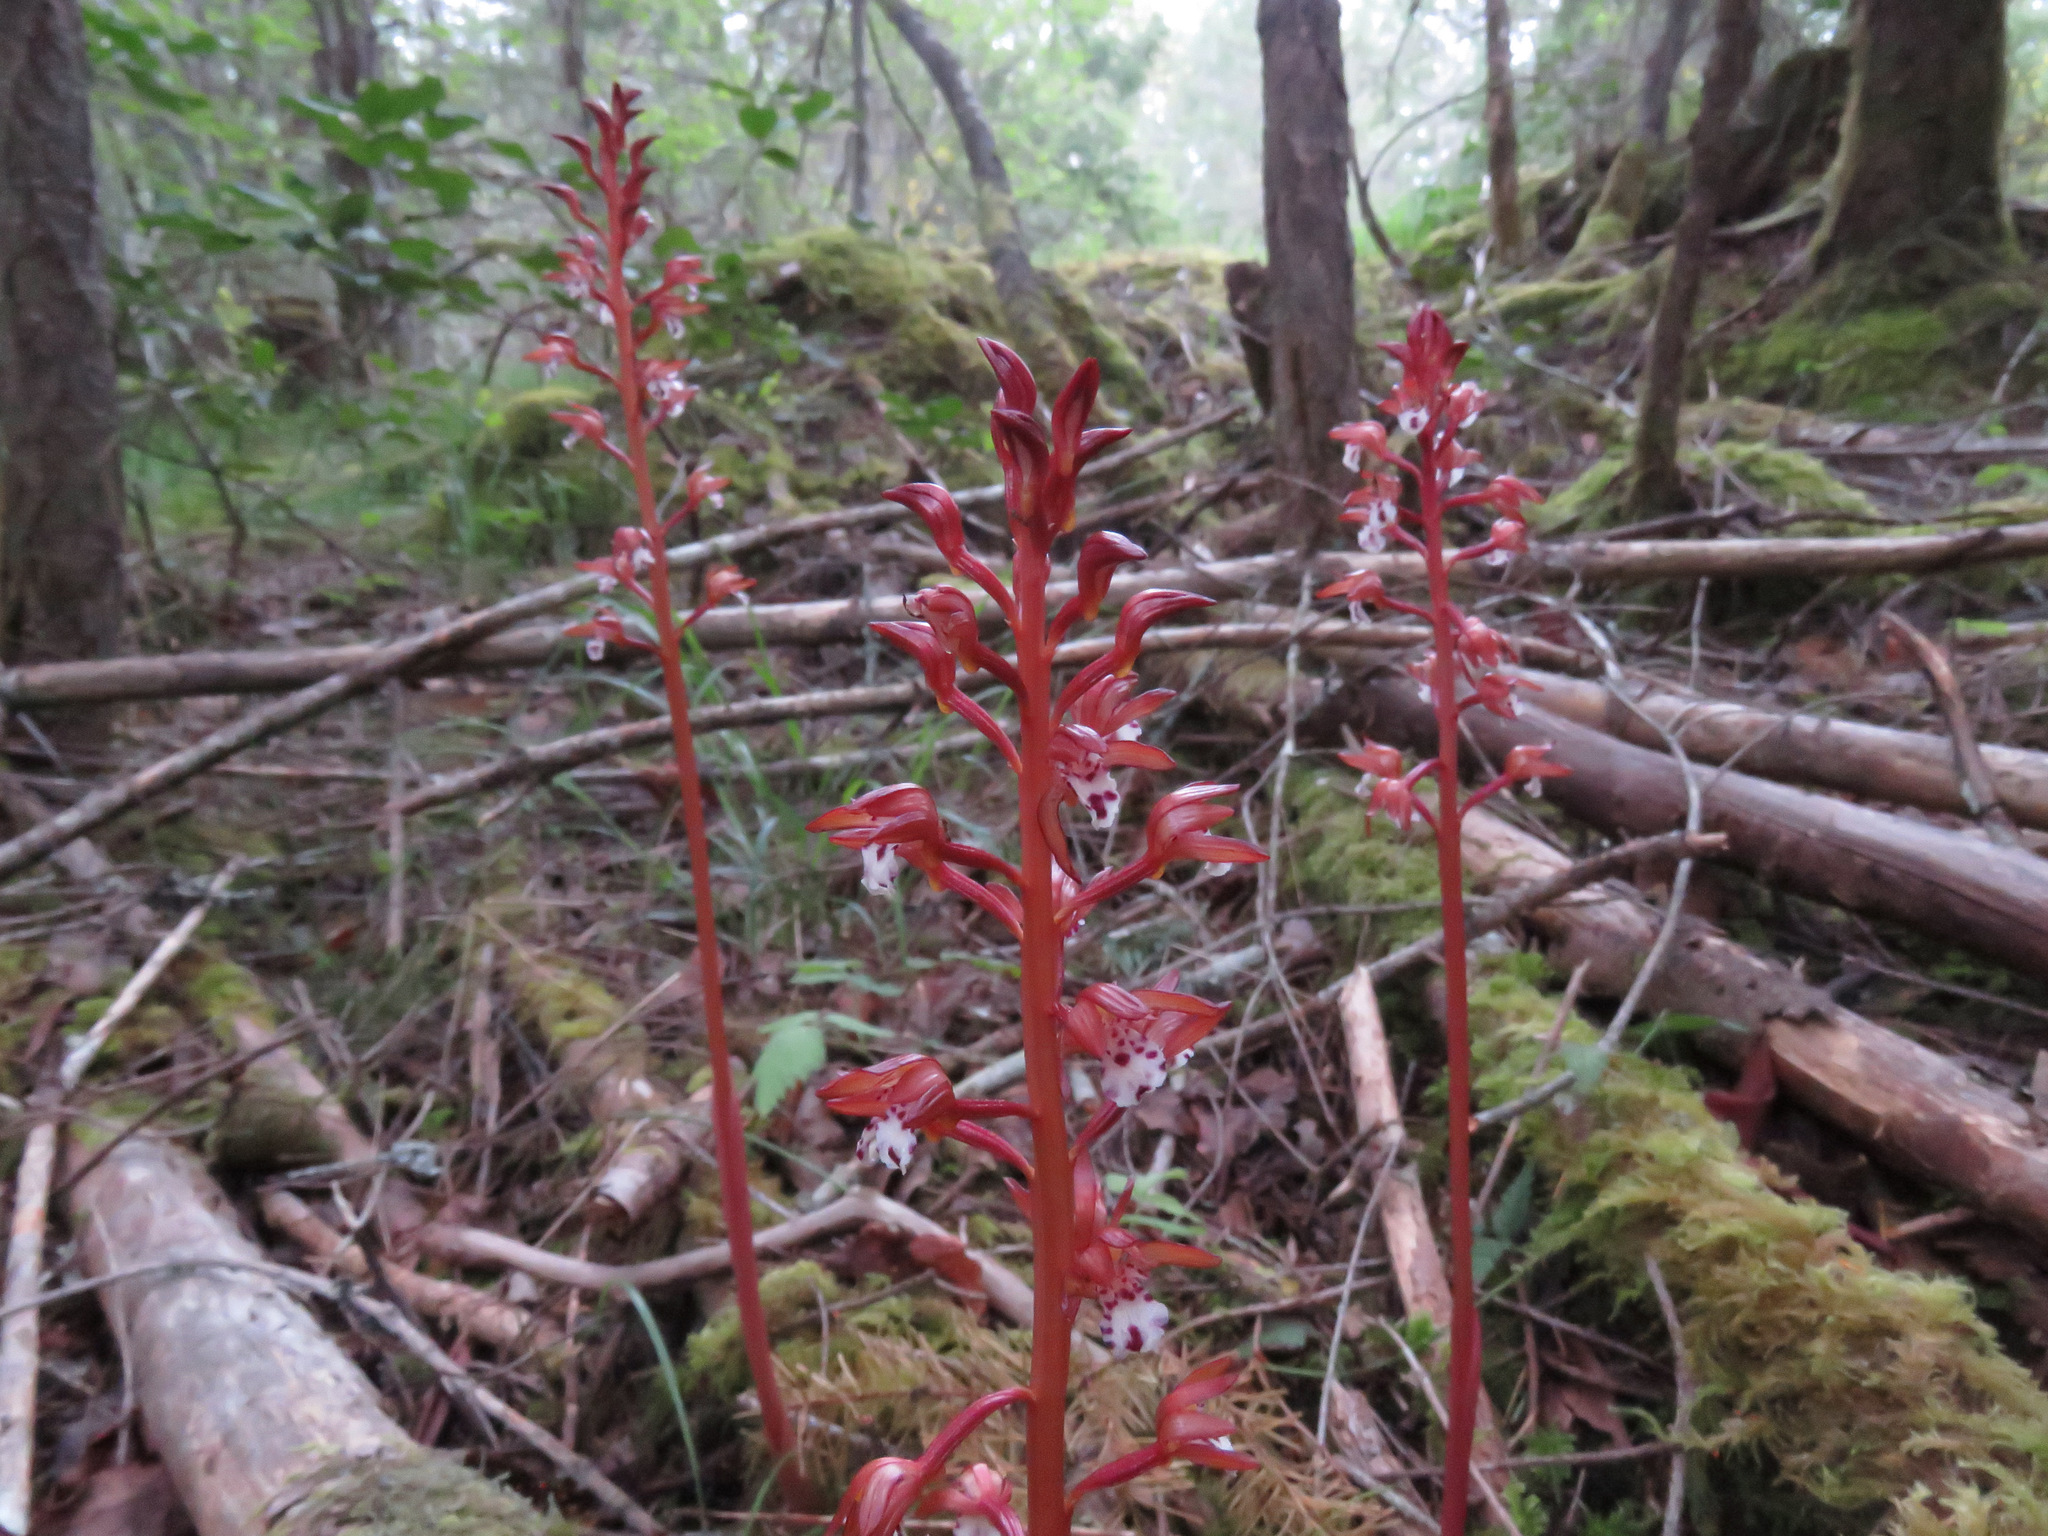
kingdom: Plantae
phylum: Tracheophyta
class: Liliopsida
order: Asparagales
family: Orchidaceae
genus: Corallorhiza
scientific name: Corallorhiza maculata
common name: Spotted coralroot
